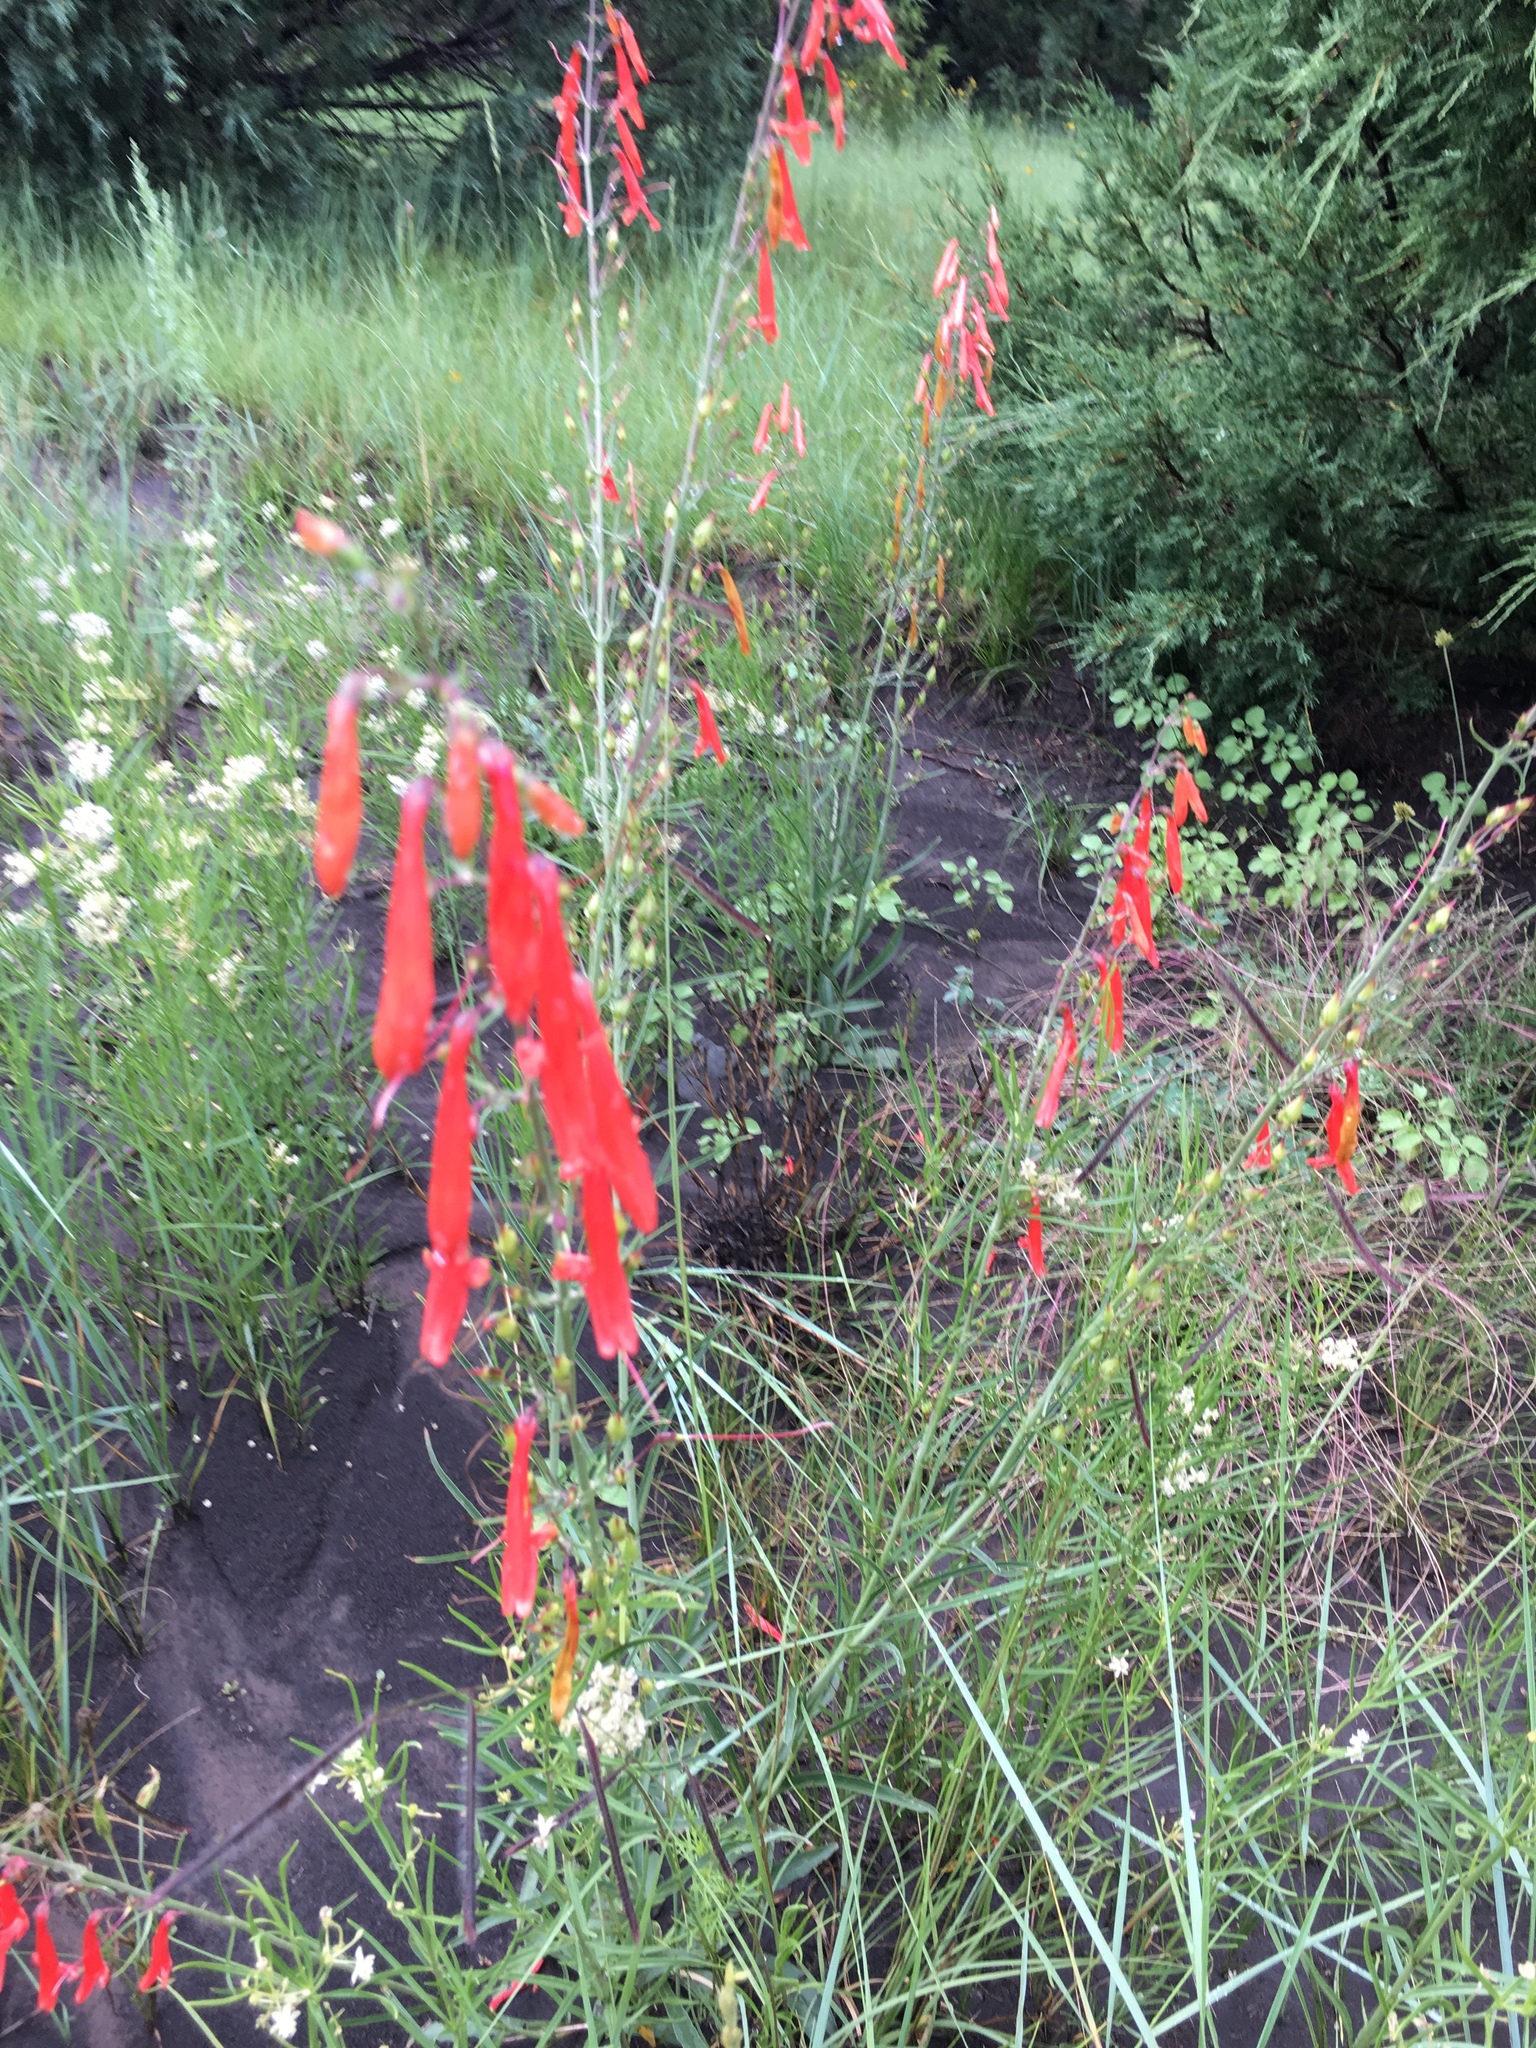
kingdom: Plantae
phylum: Tracheophyta
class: Magnoliopsida
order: Lamiales
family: Plantaginaceae
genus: Penstemon
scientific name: Penstemon barbatus
